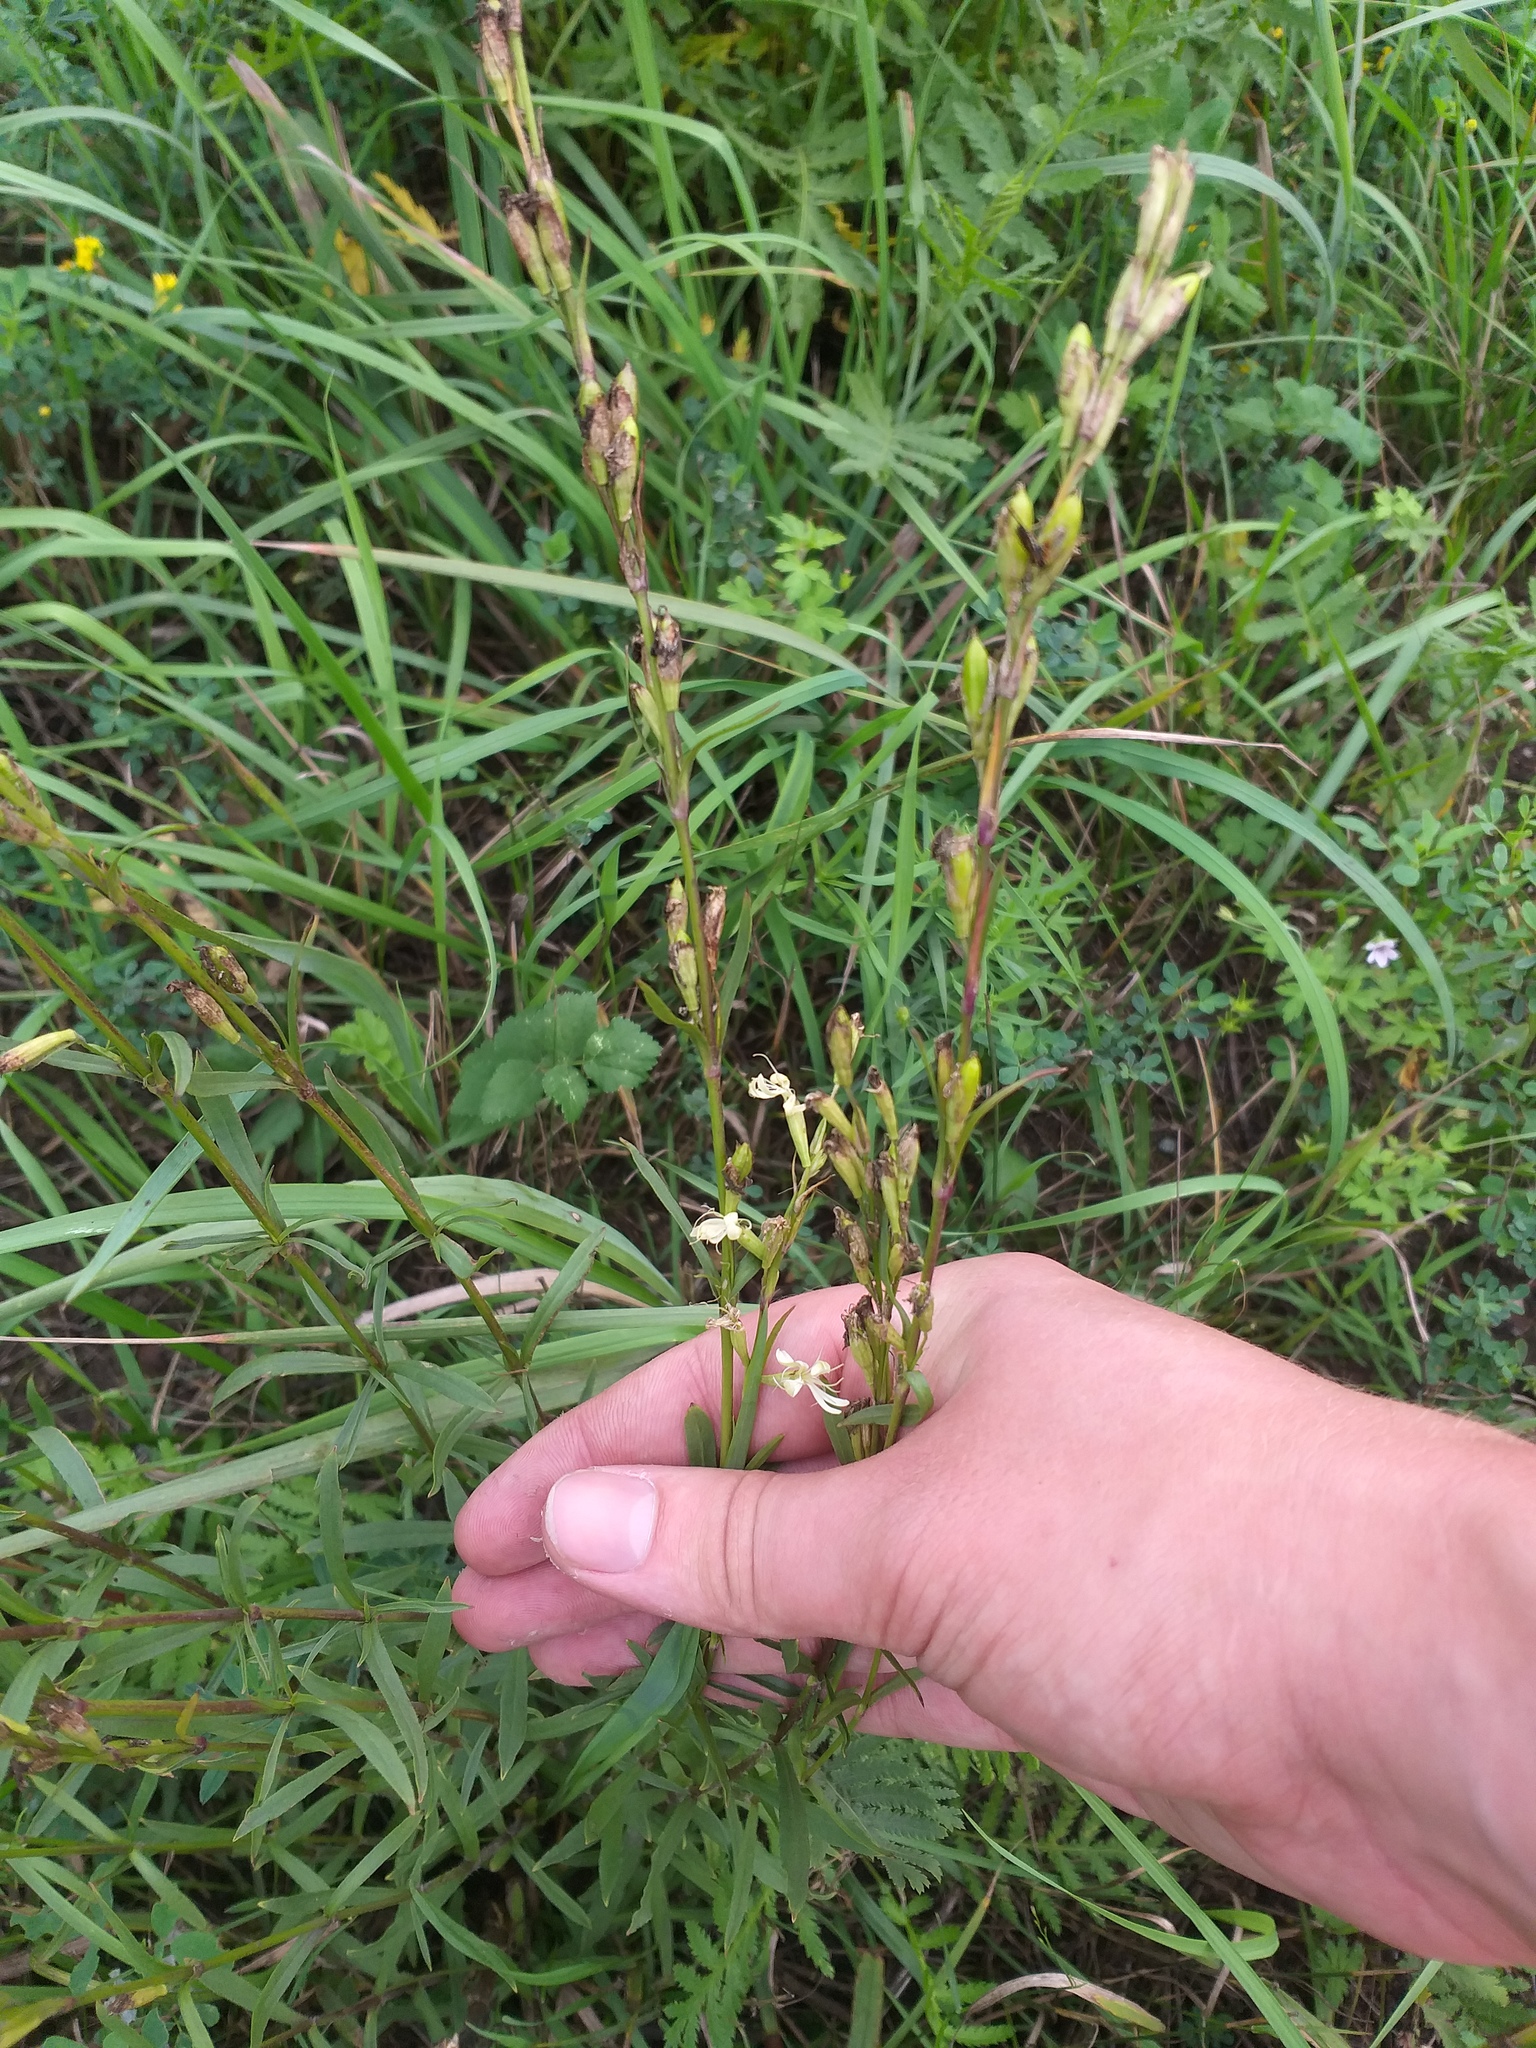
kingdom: Plantae
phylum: Tracheophyta
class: Magnoliopsida
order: Caryophyllales
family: Caryophyllaceae
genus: Silene
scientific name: Silene tatarica
